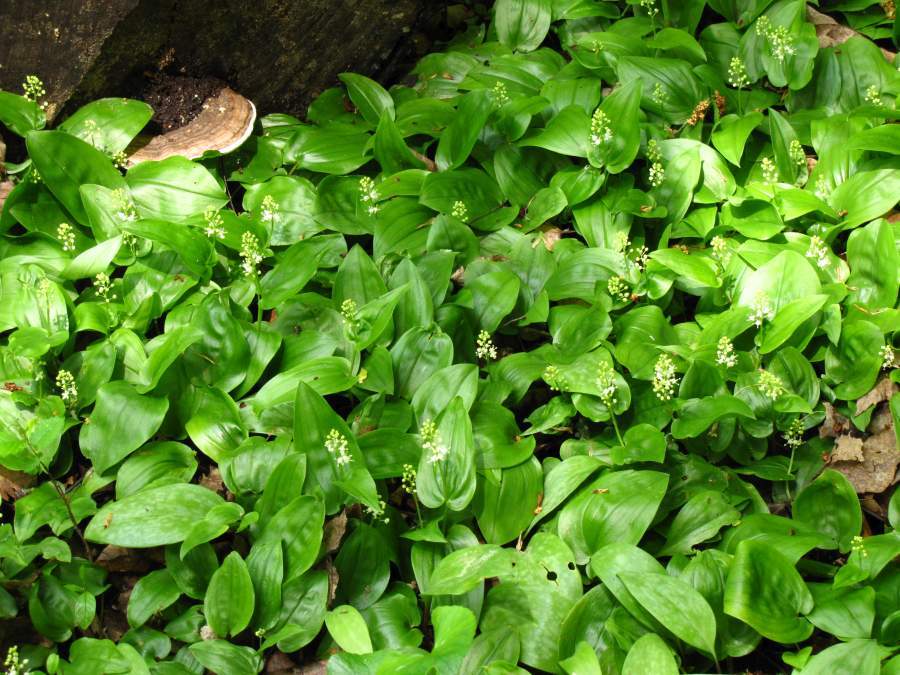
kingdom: Plantae
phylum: Tracheophyta
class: Liliopsida
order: Asparagales
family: Asparagaceae
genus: Maianthemum
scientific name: Maianthemum canadense
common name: False lily-of-the-valley
